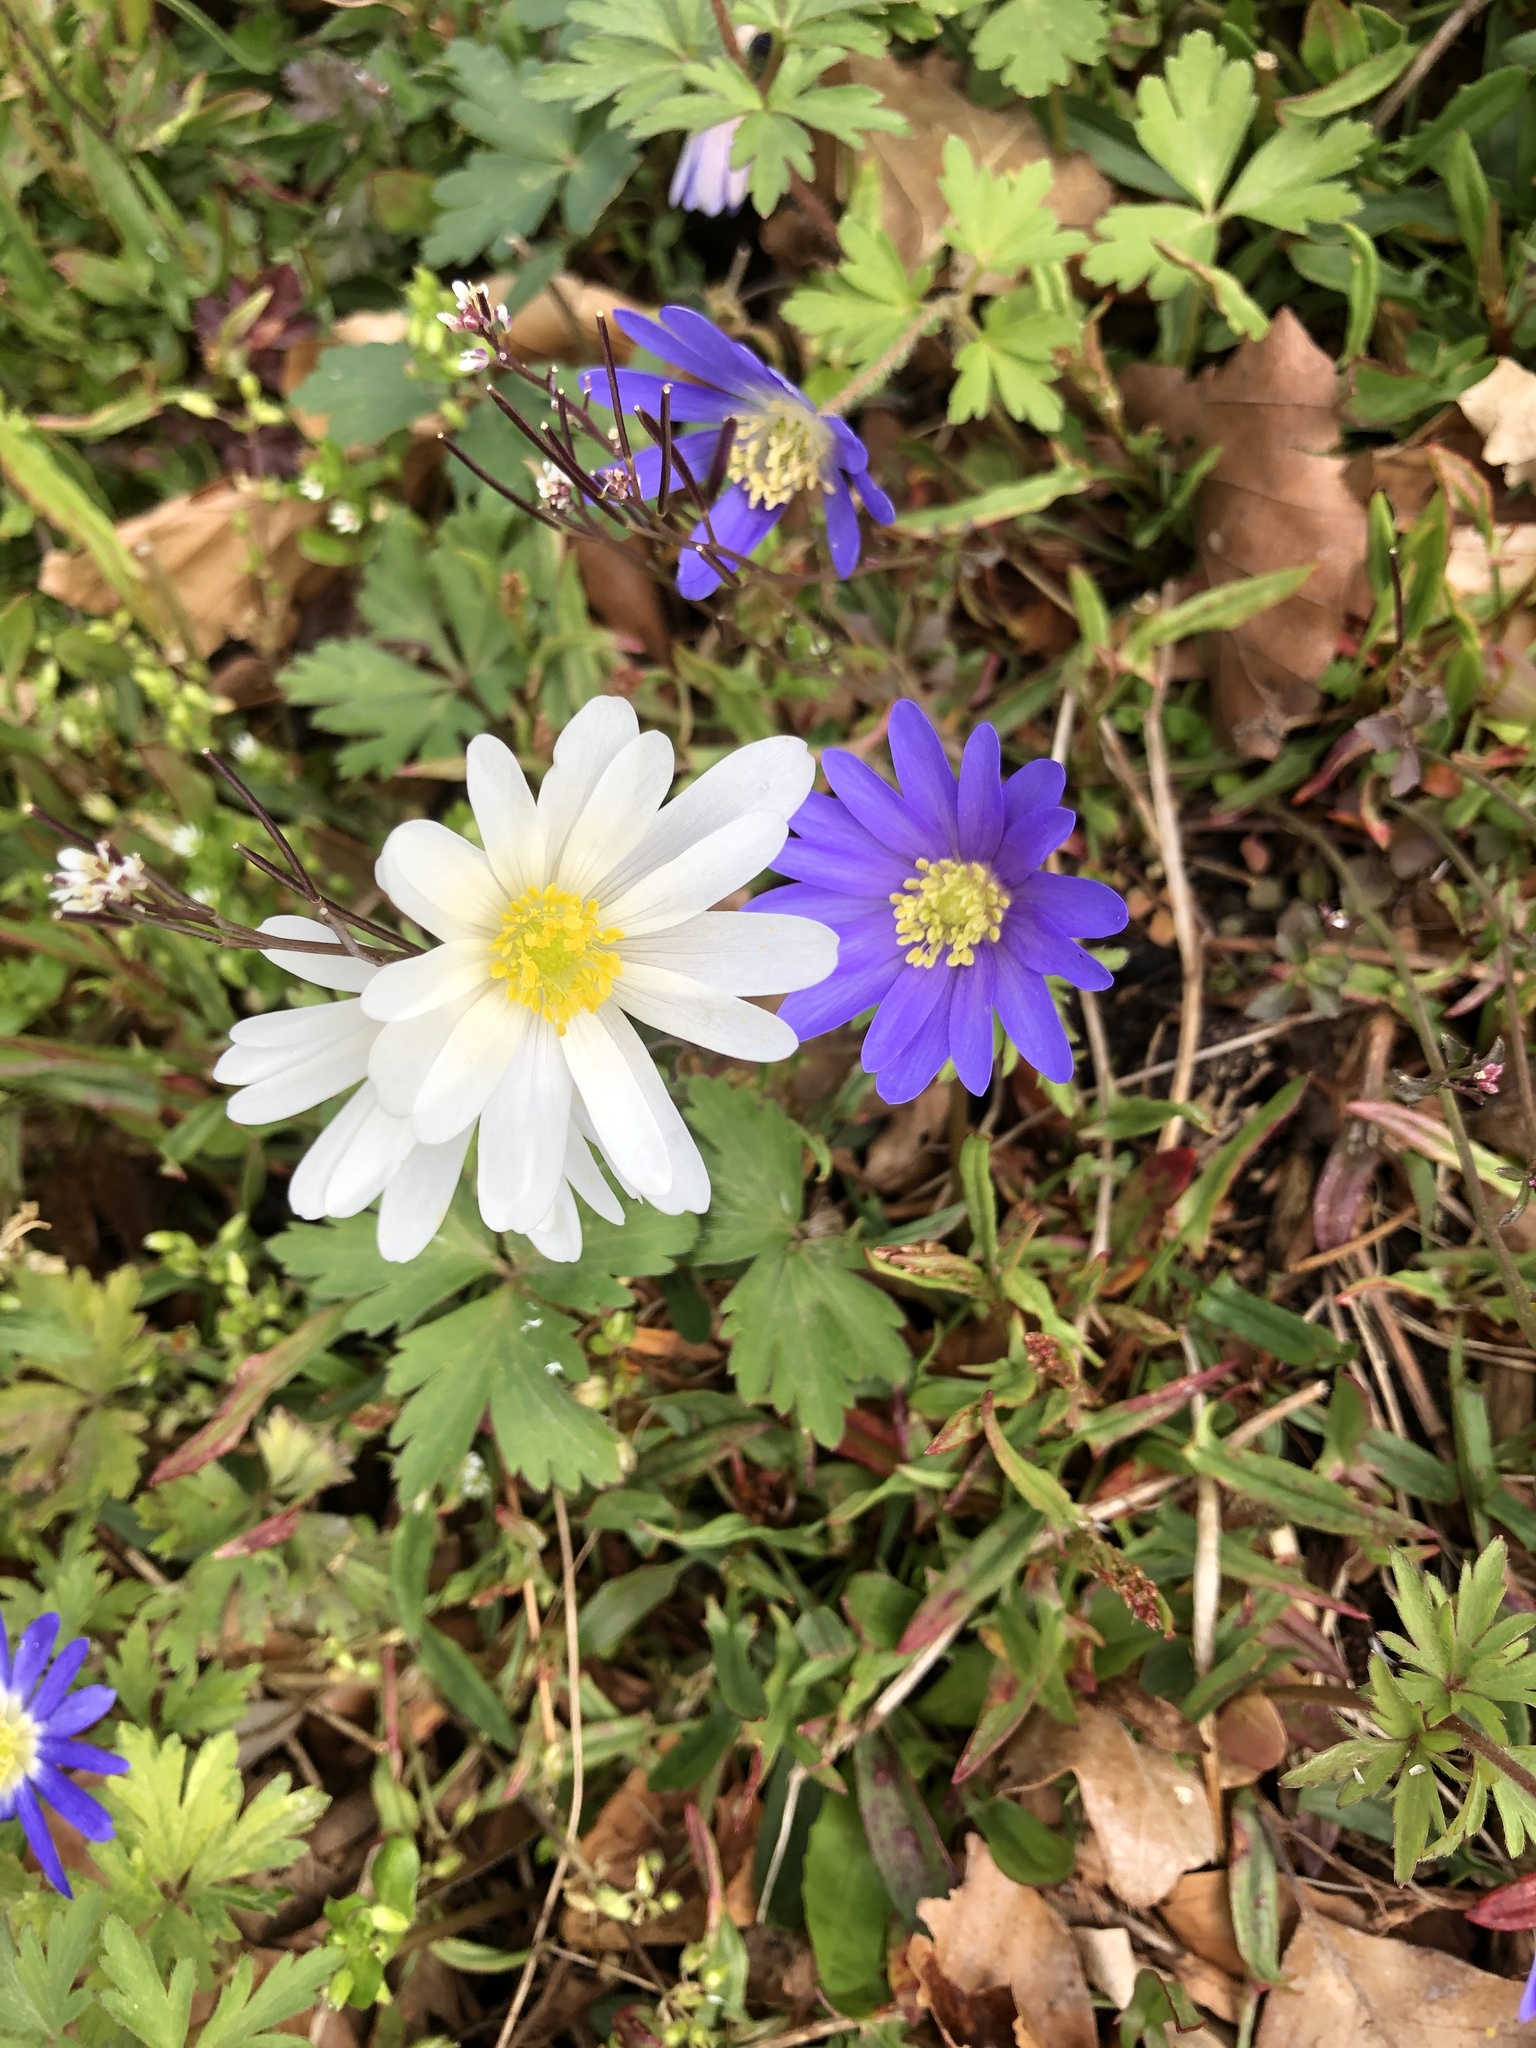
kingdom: Plantae
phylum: Tracheophyta
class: Magnoliopsida
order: Ranunculales
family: Ranunculaceae
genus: Anemone
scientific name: Anemone blanda
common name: Balkan anemone
